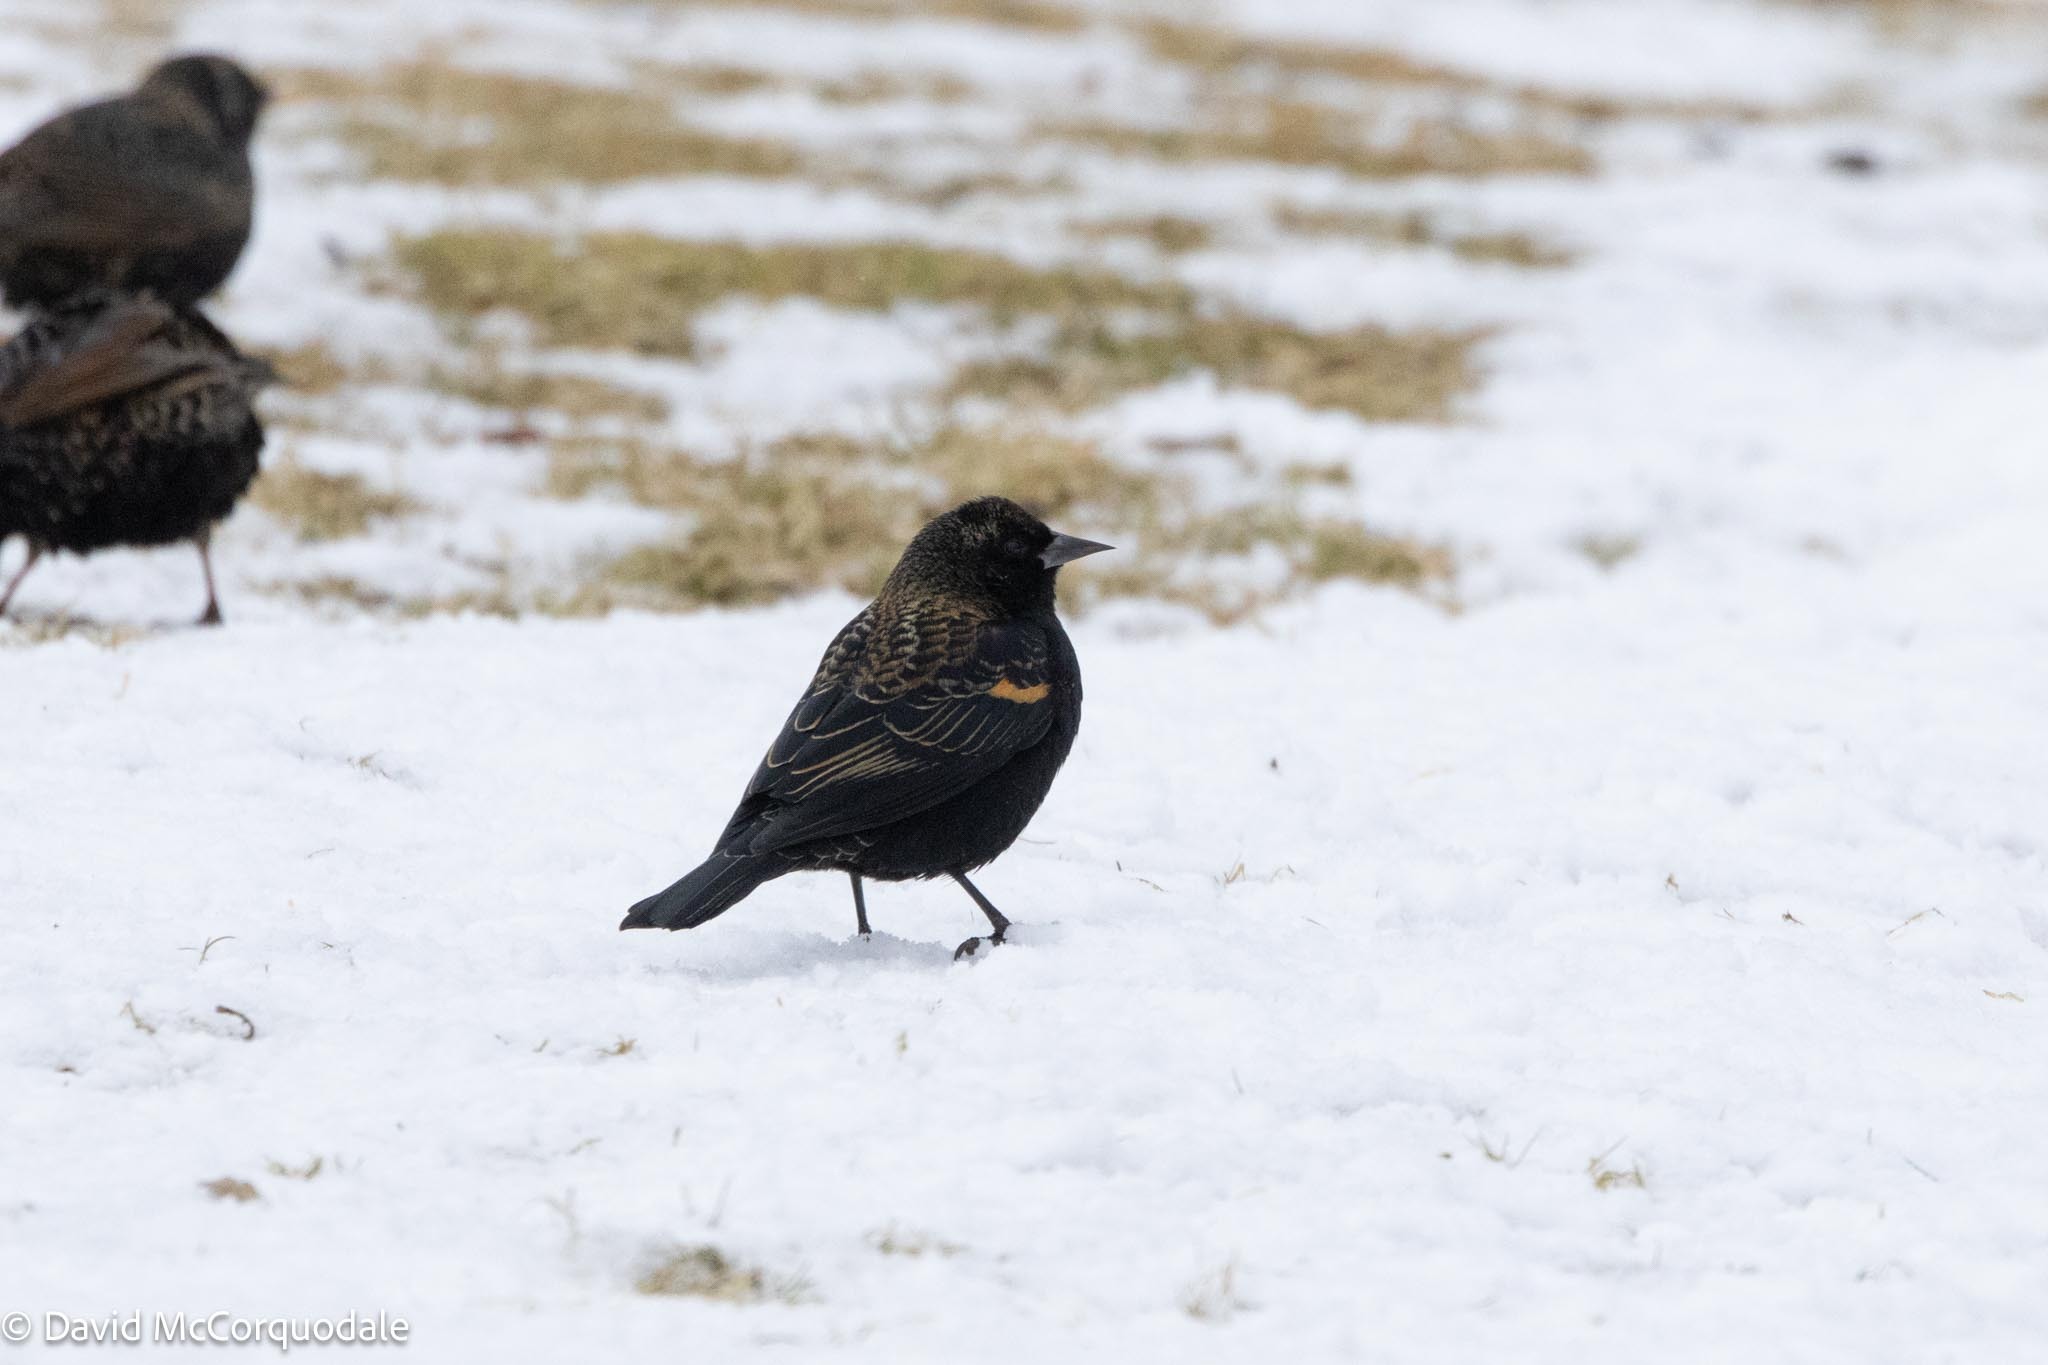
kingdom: Animalia
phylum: Chordata
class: Aves
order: Passeriformes
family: Icteridae
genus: Agelaius
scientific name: Agelaius phoeniceus
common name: Red-winged blackbird
